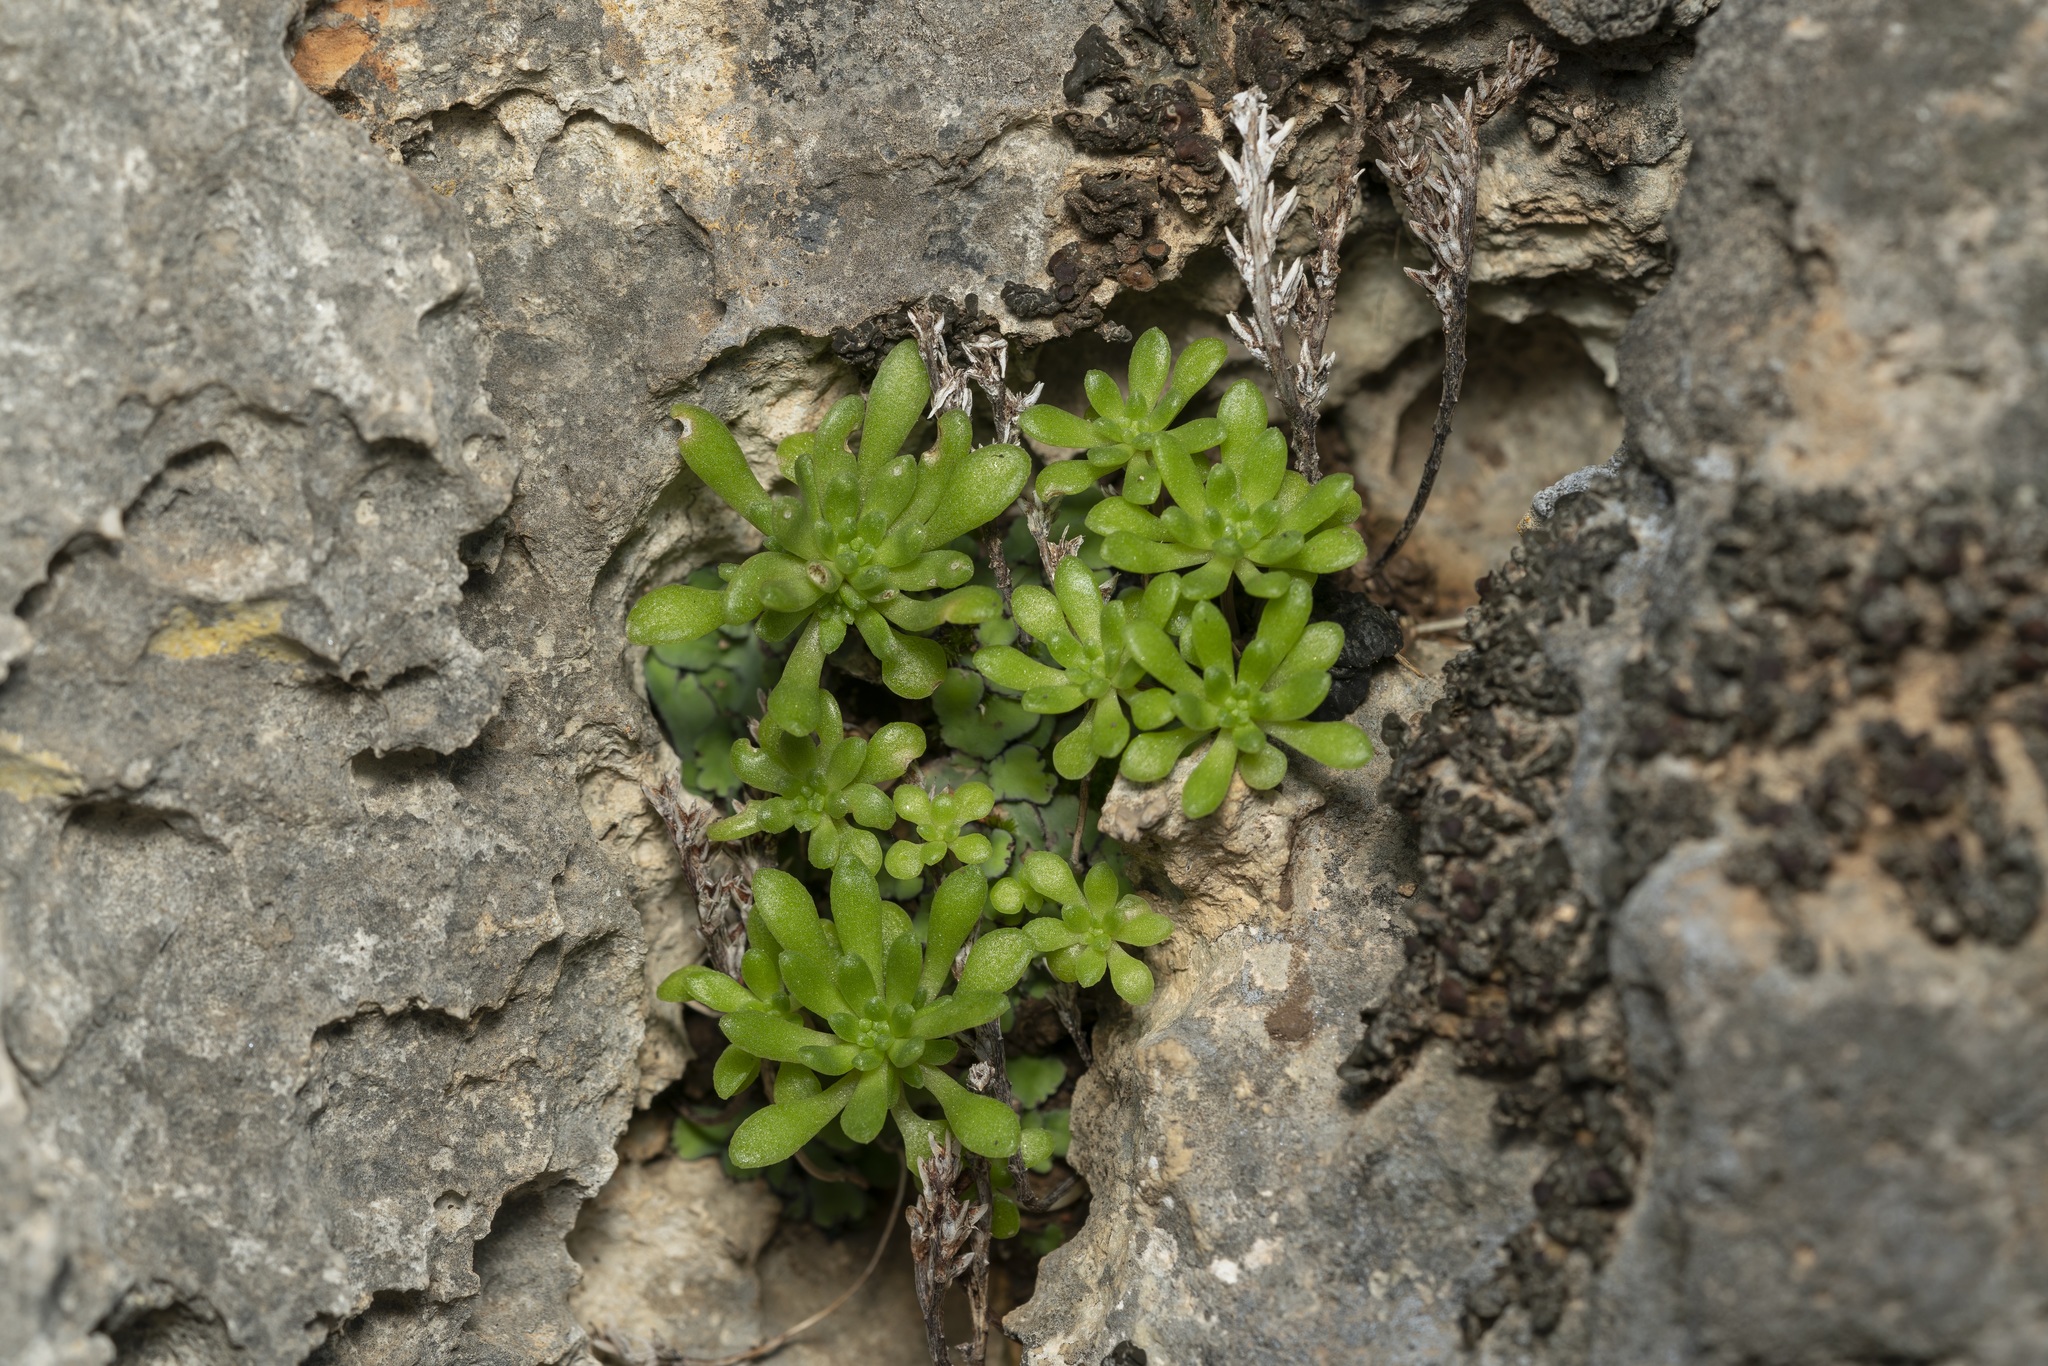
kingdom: Plantae
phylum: Tracheophyta
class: Magnoliopsida
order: Saxifragales
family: Crassulaceae
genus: Sedum
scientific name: Sedum litoreum
